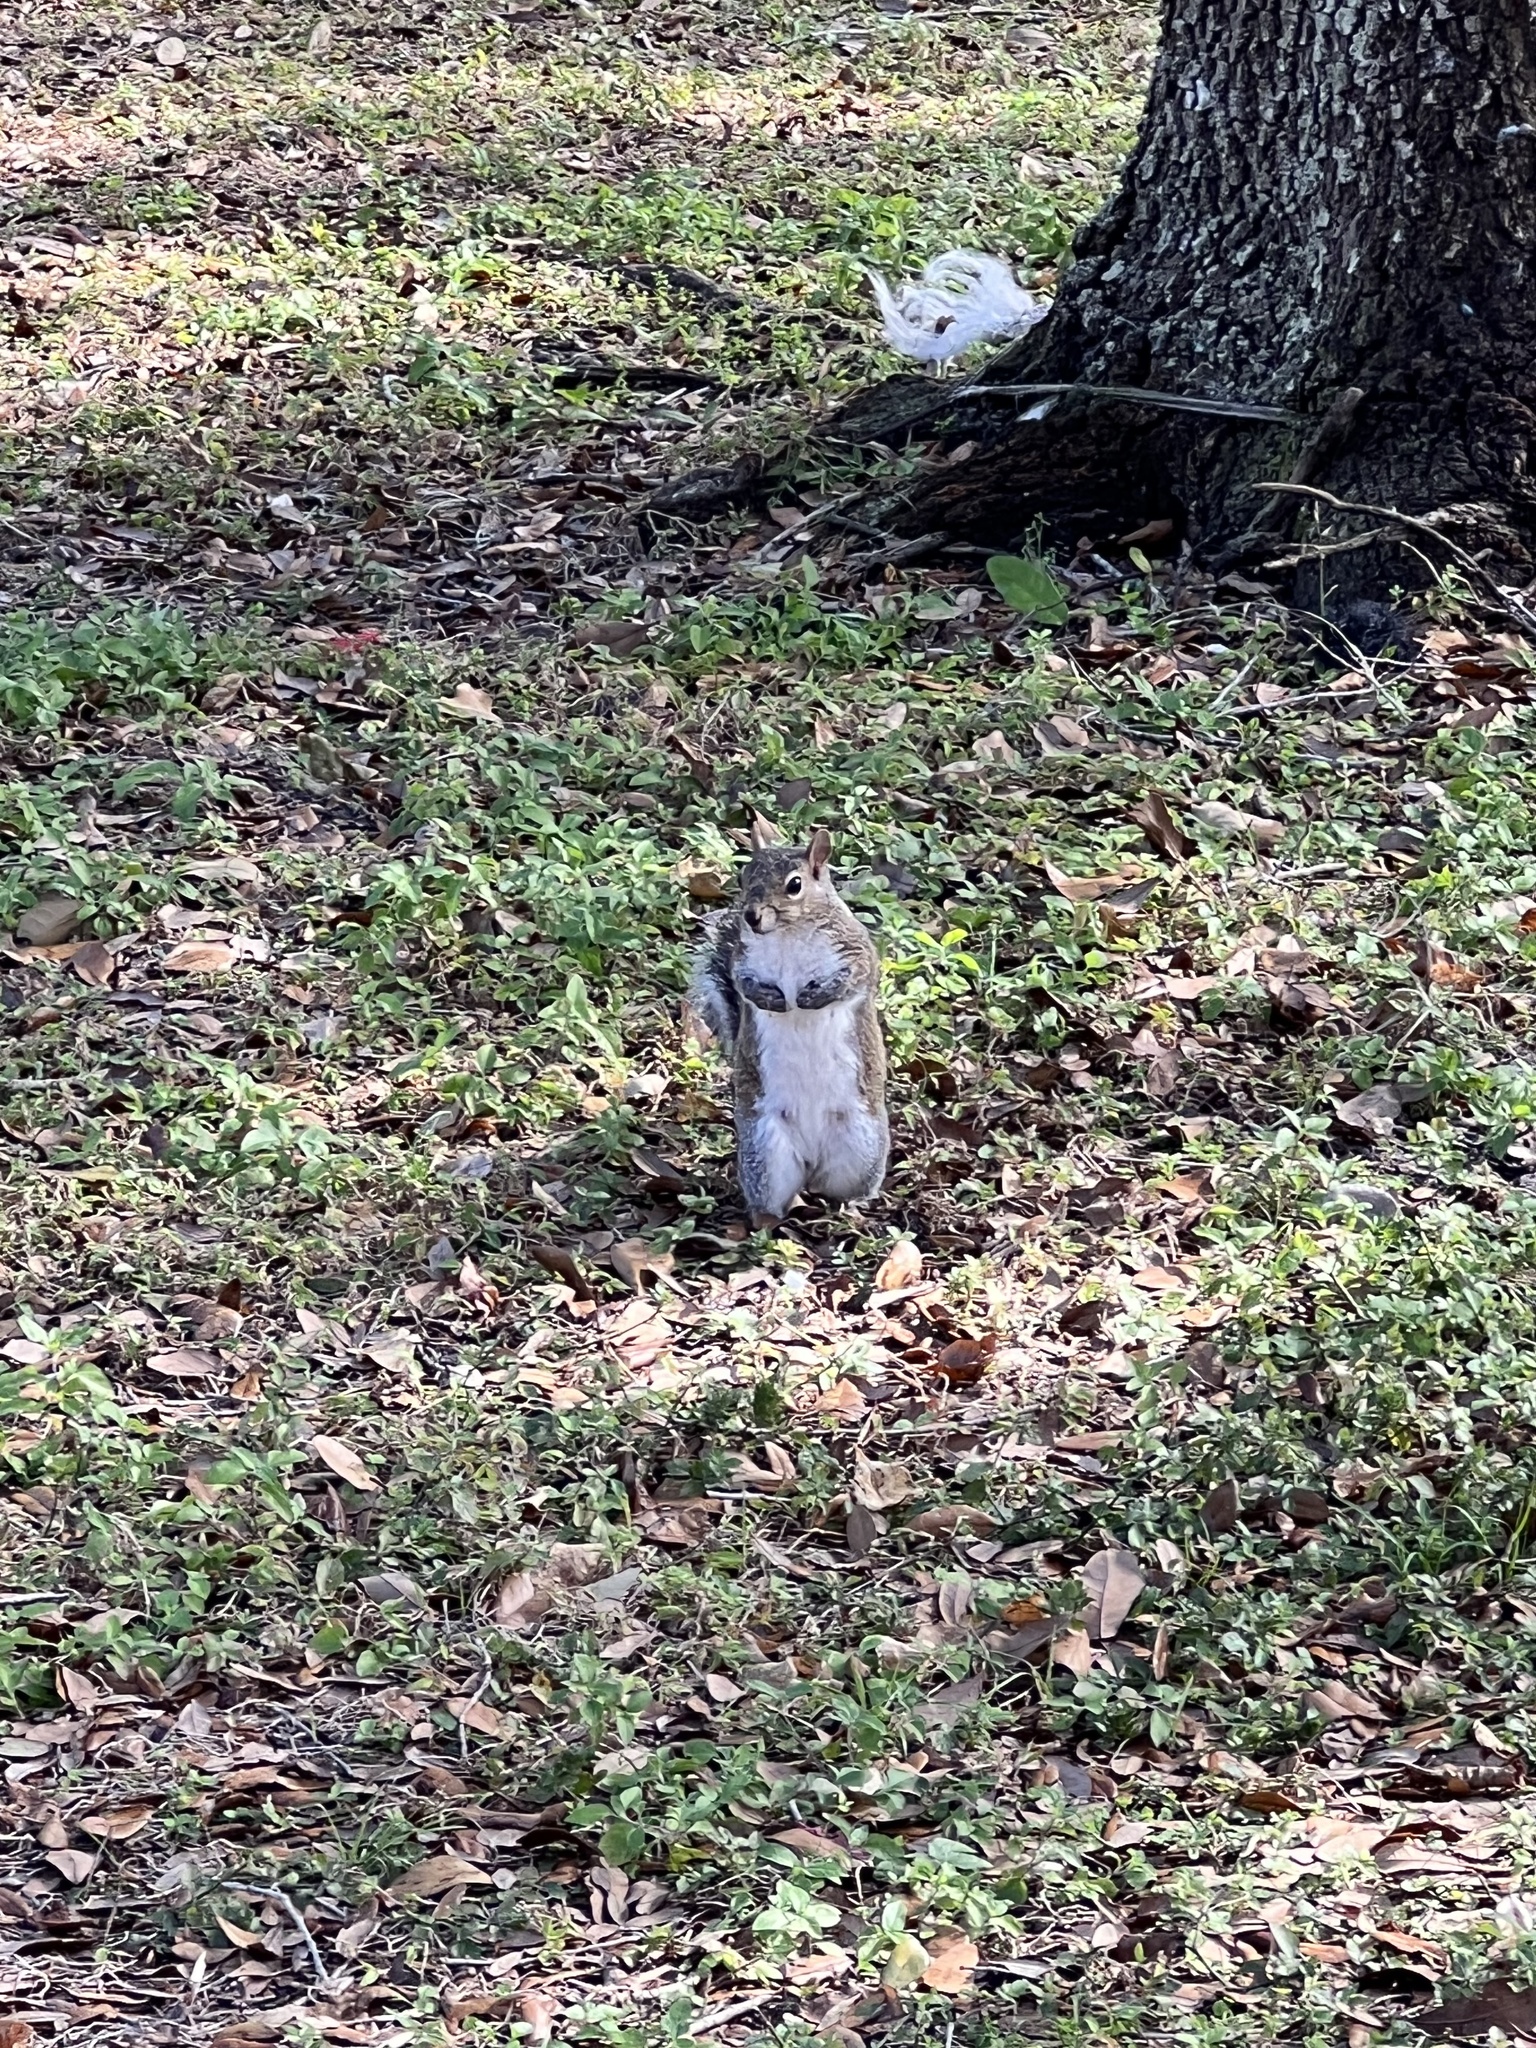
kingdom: Animalia
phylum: Chordata
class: Mammalia
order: Rodentia
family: Sciuridae
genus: Sciurus
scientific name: Sciurus carolinensis
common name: Eastern gray squirrel
